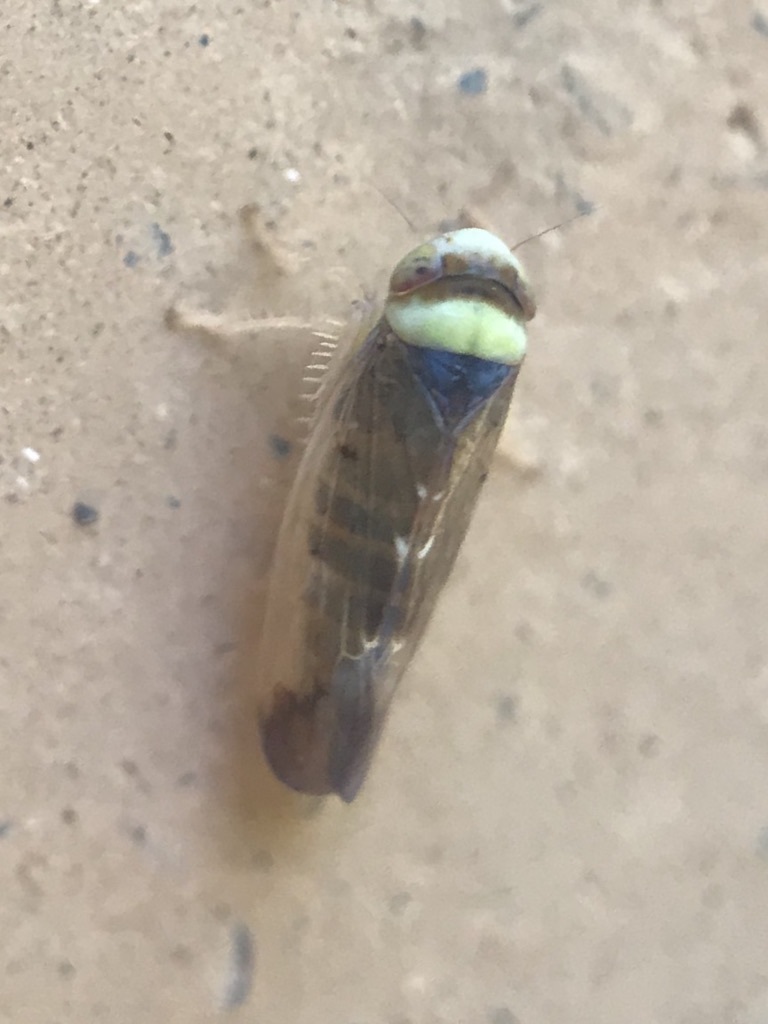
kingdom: Animalia
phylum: Arthropoda
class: Insecta
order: Hemiptera
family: Cicadellidae
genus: Colladonus
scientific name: Colladonus montanus
